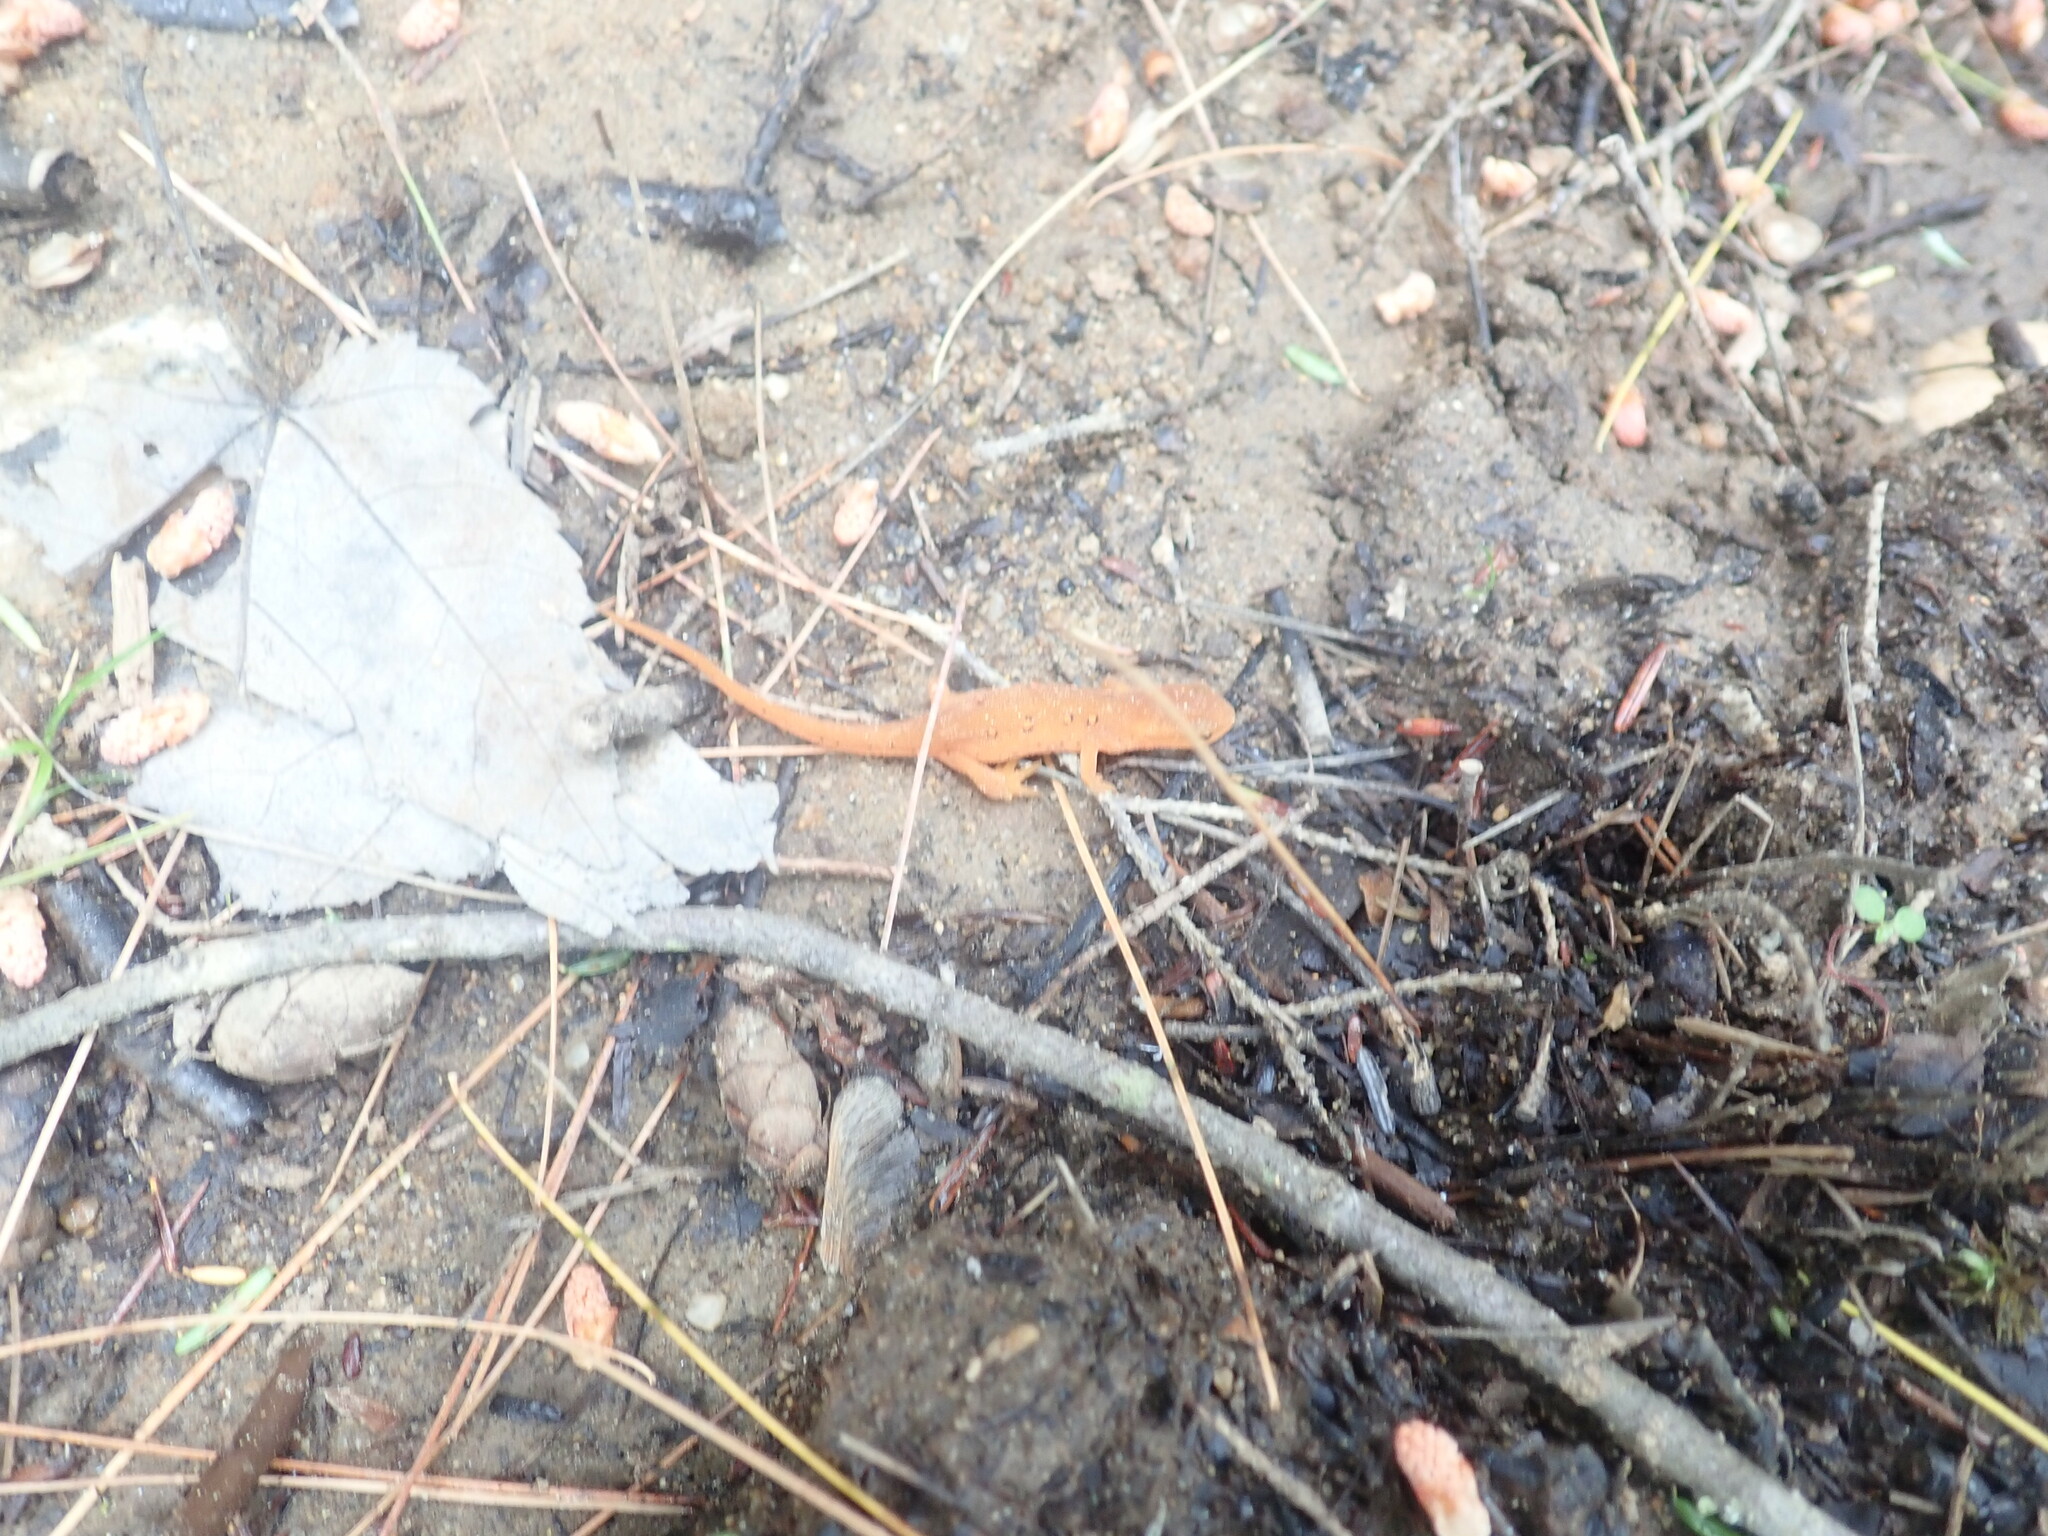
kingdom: Animalia
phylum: Chordata
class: Amphibia
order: Caudata
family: Salamandridae
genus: Notophthalmus
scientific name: Notophthalmus viridescens
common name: Eastern newt
